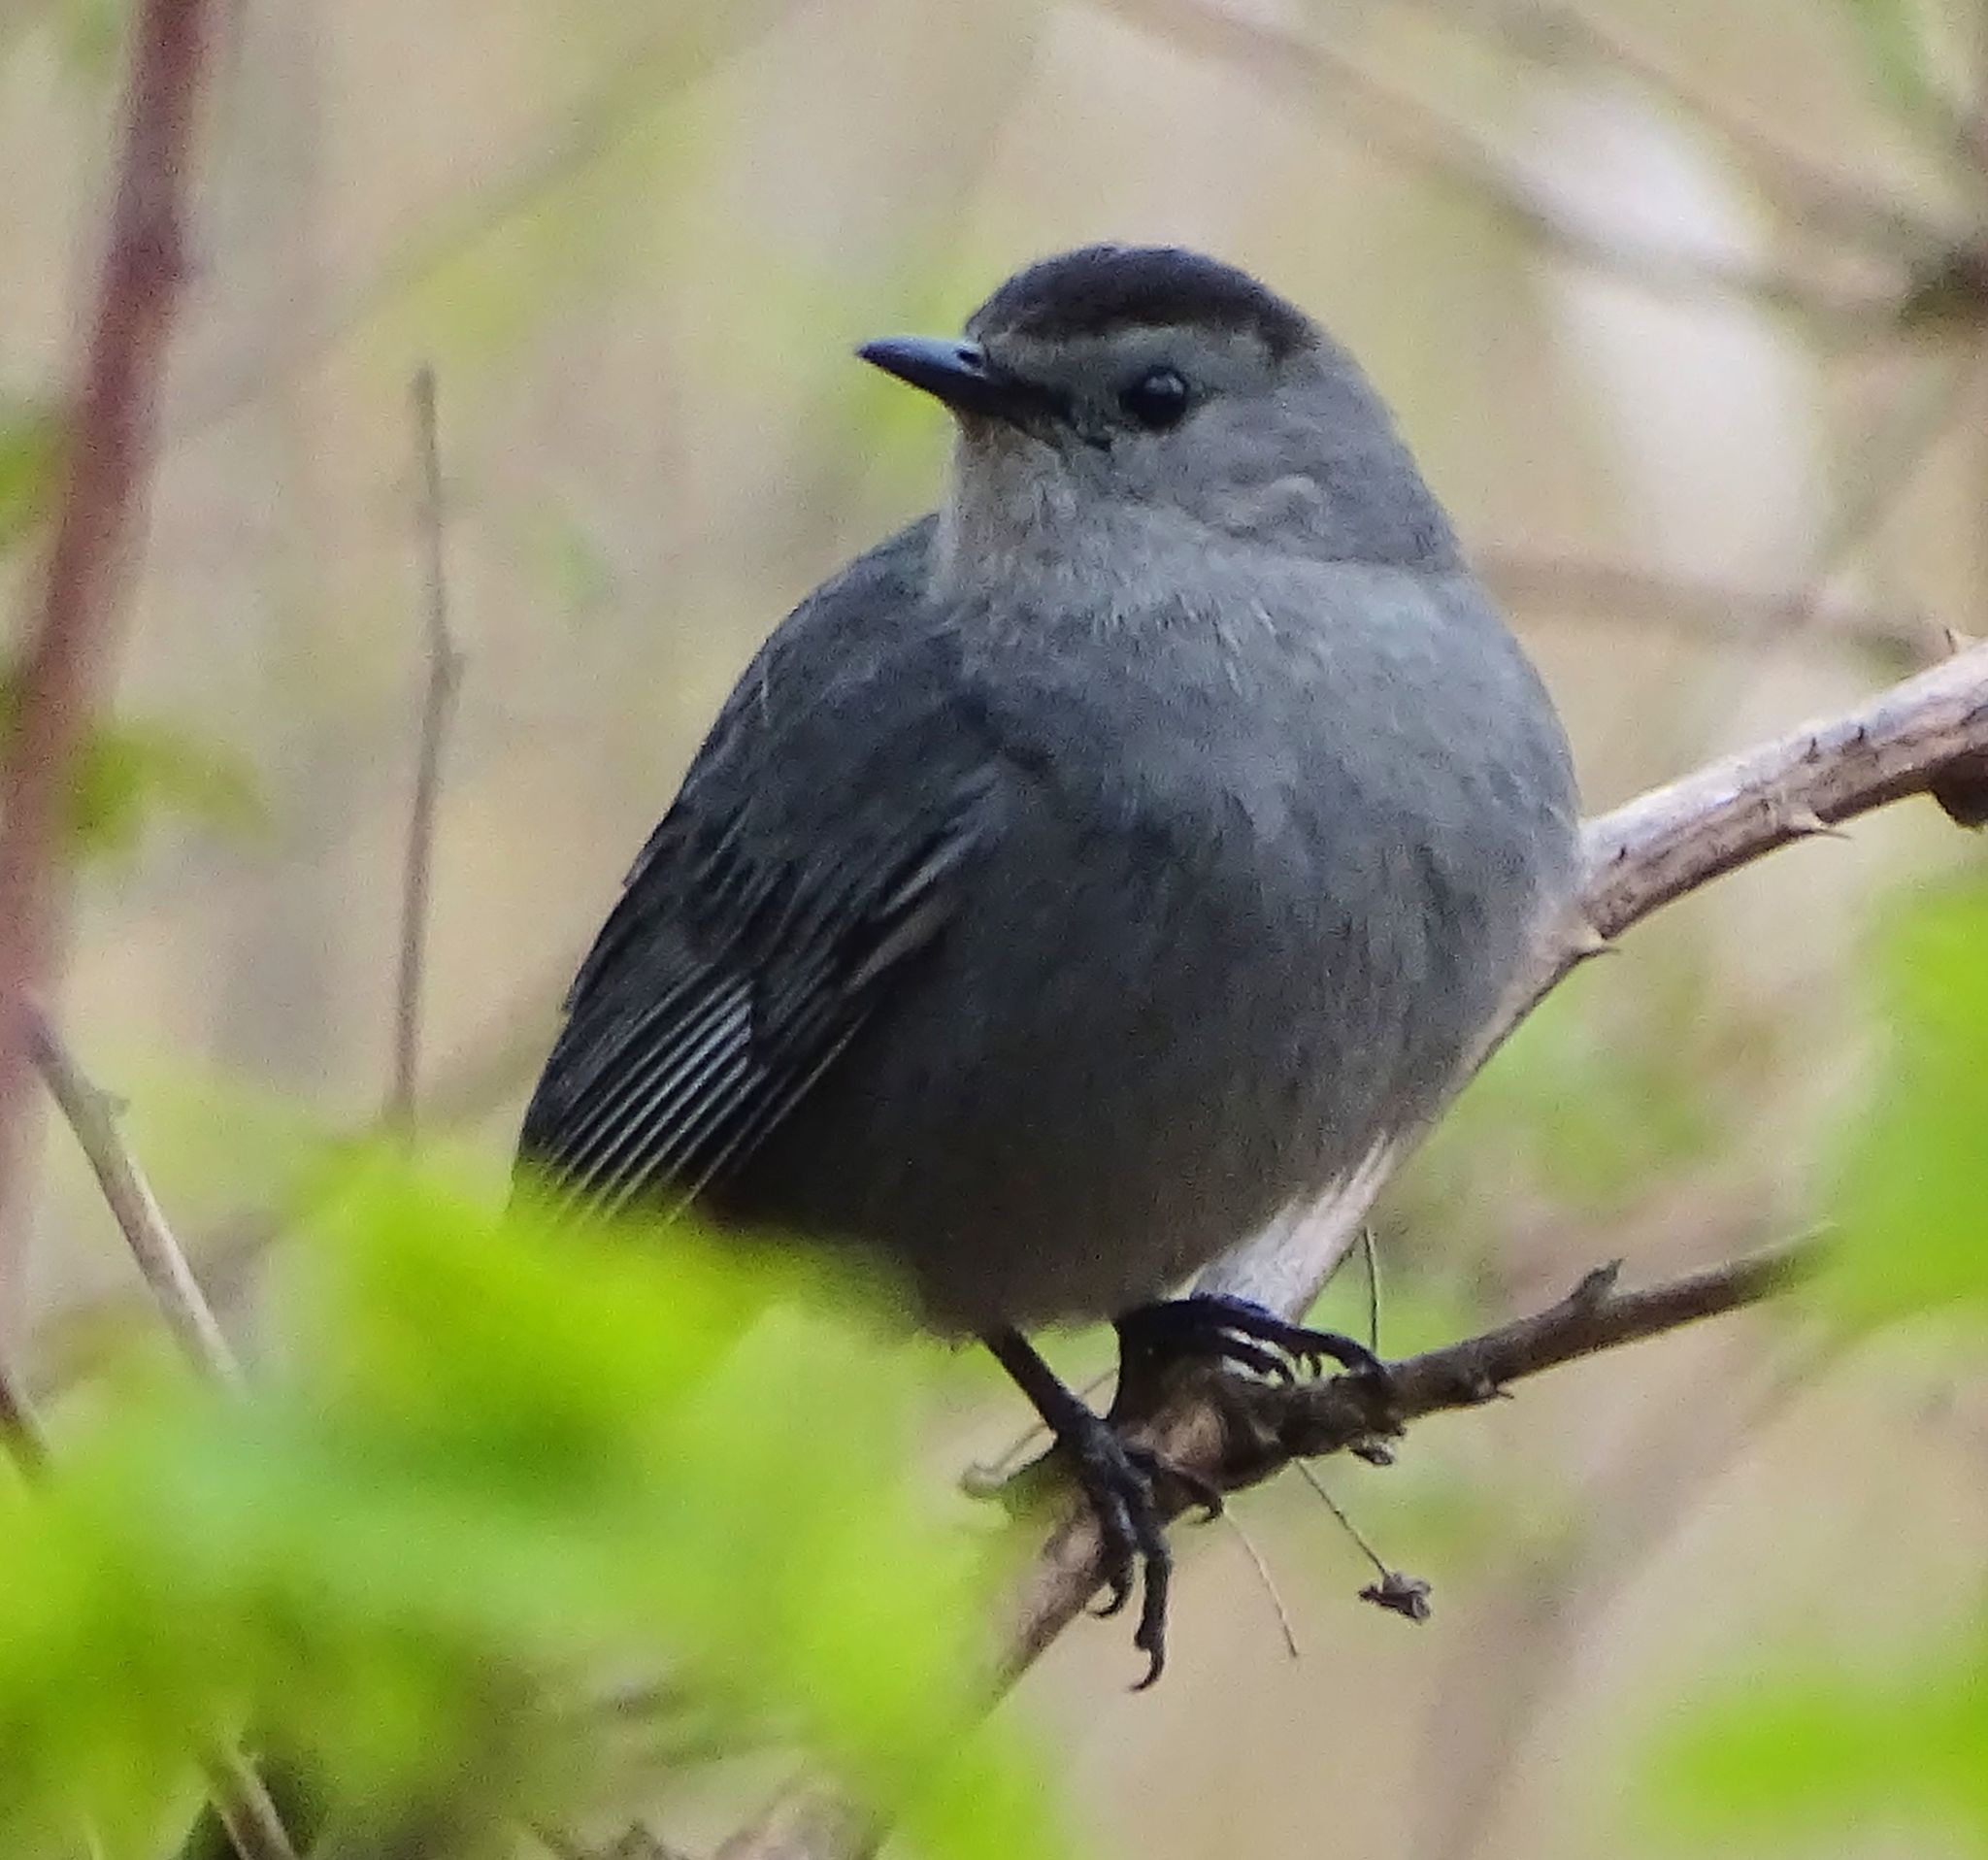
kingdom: Animalia
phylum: Chordata
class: Aves
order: Passeriformes
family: Mimidae
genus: Dumetella
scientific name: Dumetella carolinensis
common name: Gray catbird
